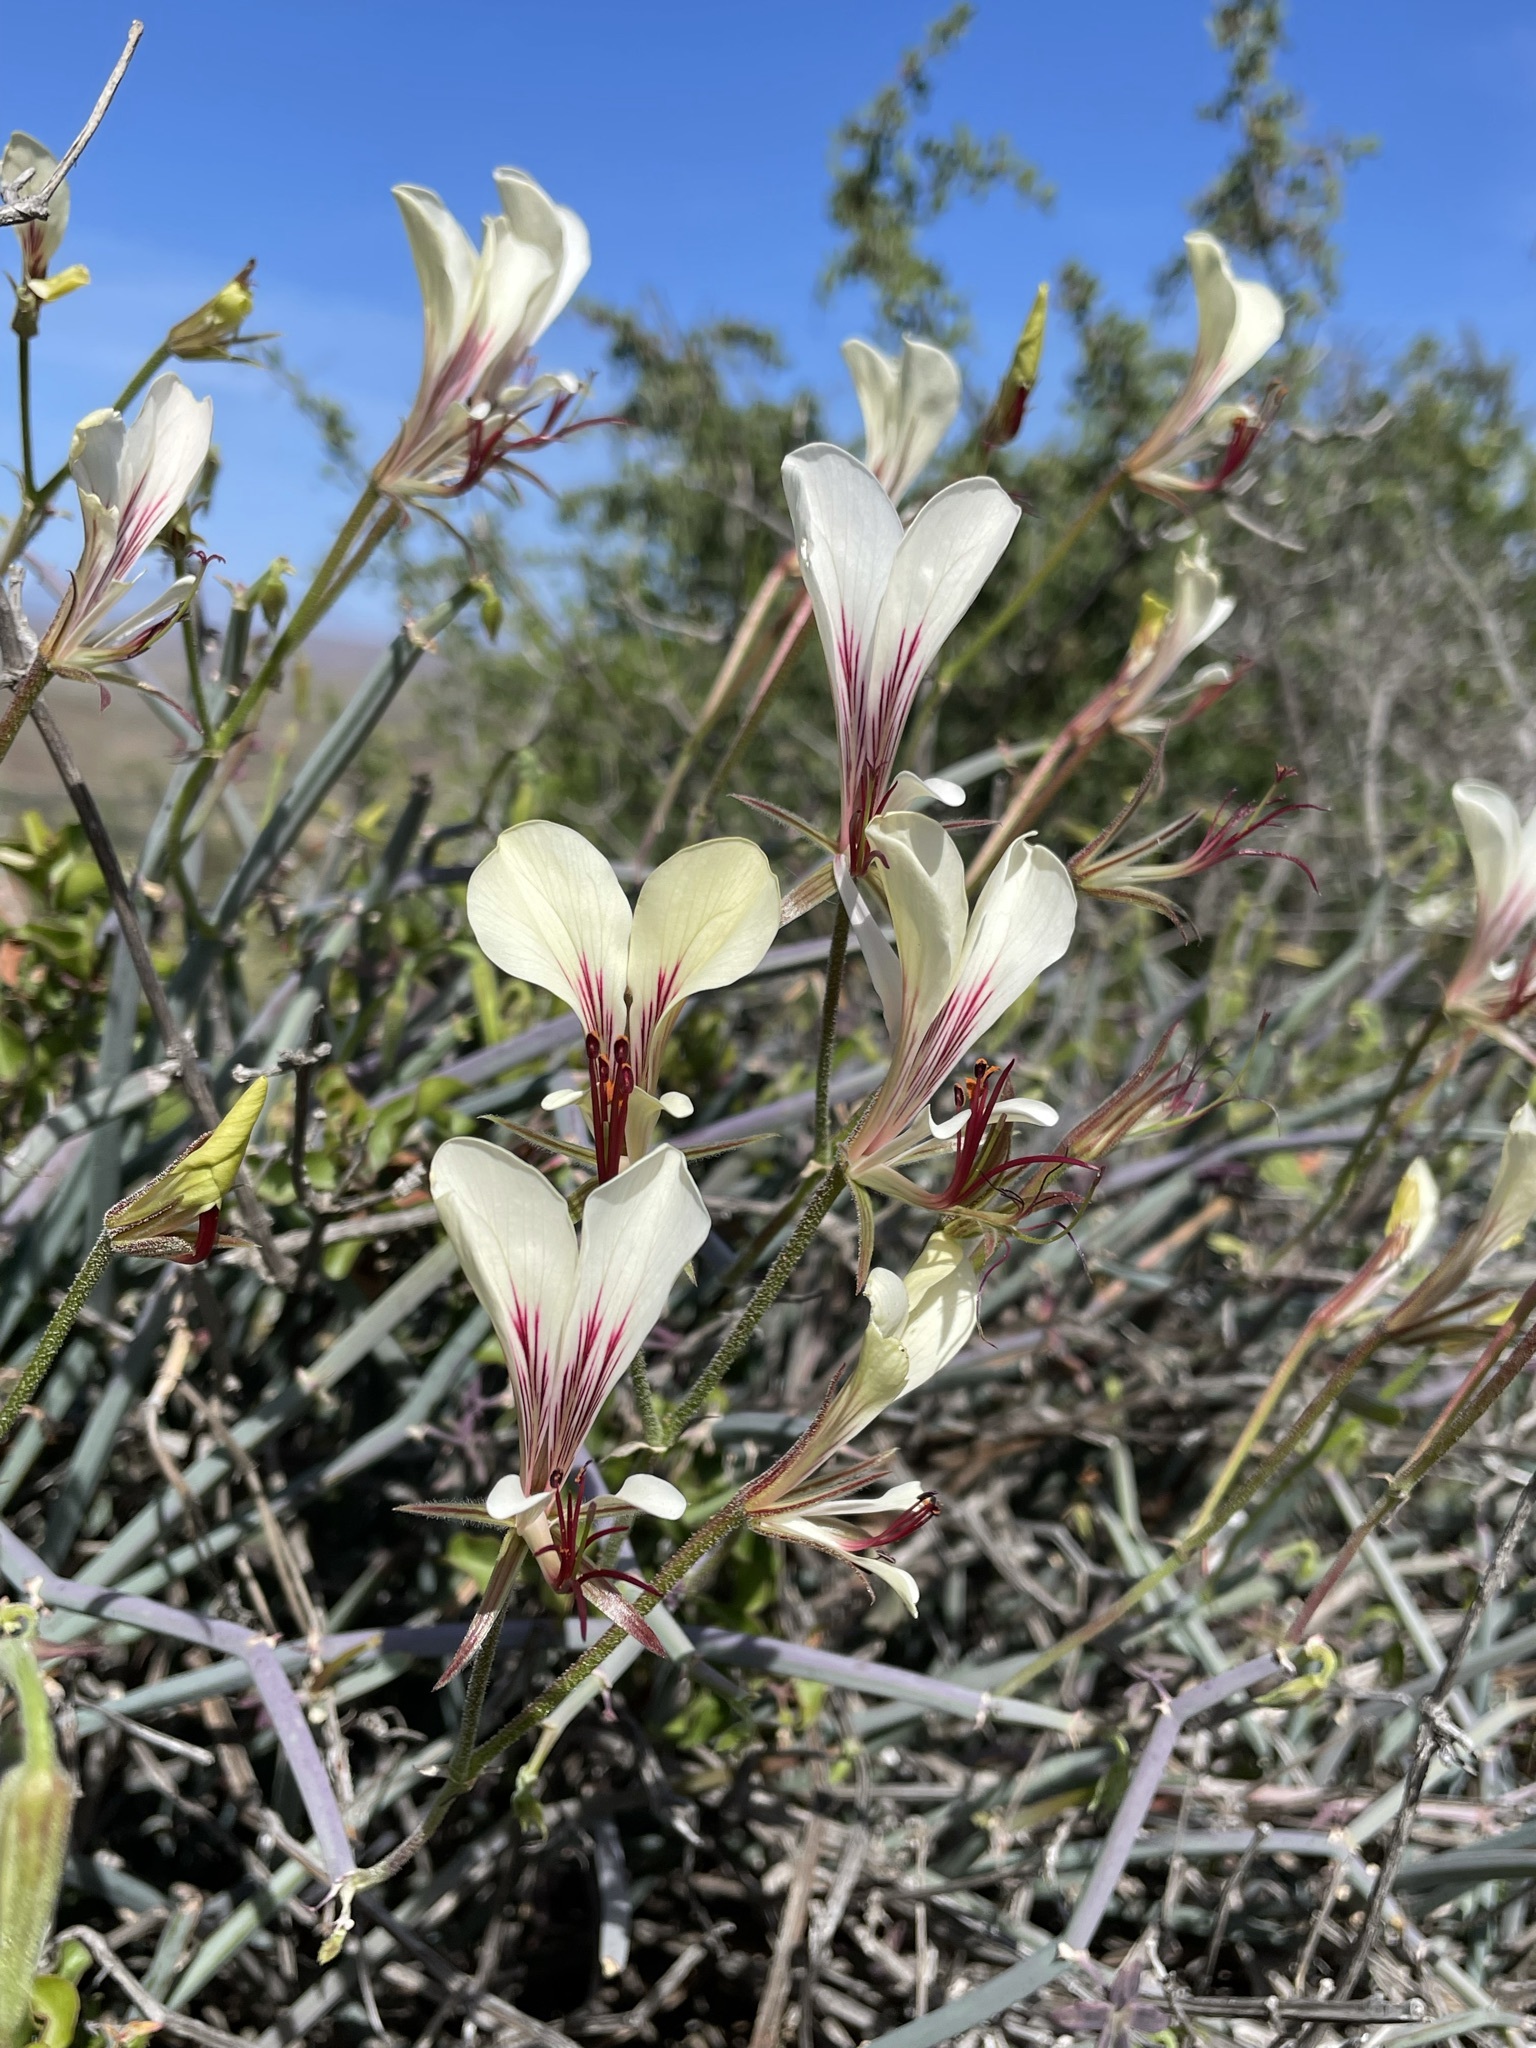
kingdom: Plantae
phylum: Tracheophyta
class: Magnoliopsida
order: Geraniales
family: Geraniaceae
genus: Pelargonium
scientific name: Pelargonium tetragonum
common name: Square-stack crane's-bill
